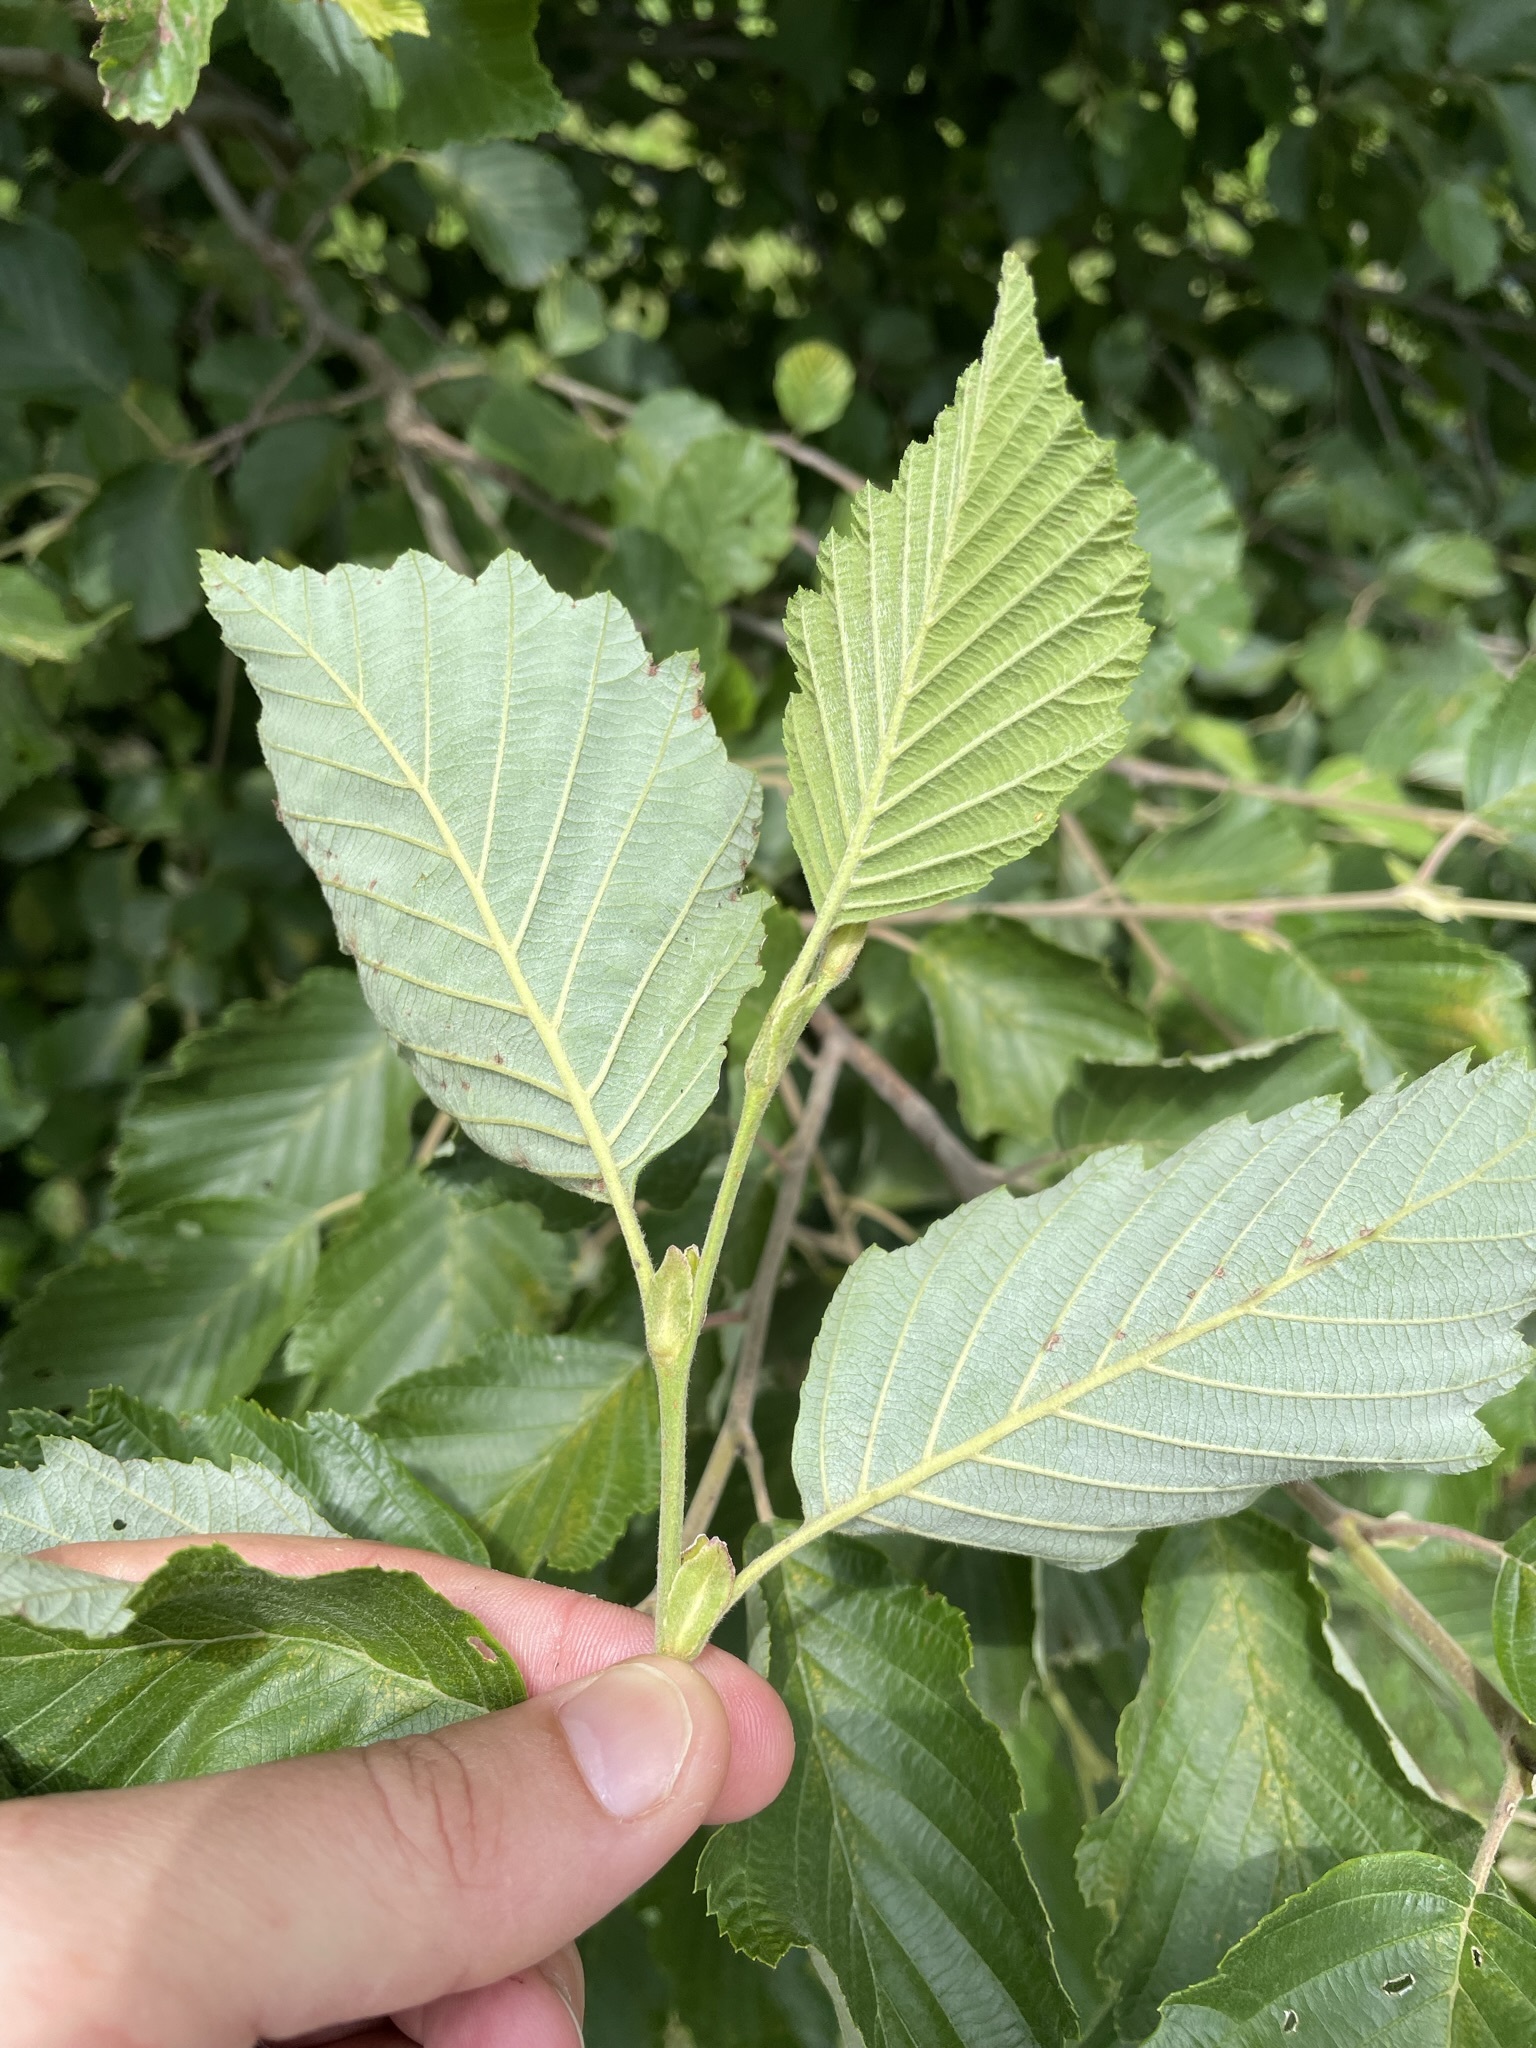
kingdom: Plantae
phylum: Tracheophyta
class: Magnoliopsida
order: Fagales
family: Betulaceae
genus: Alnus
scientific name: Alnus incana
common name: Grey alder
